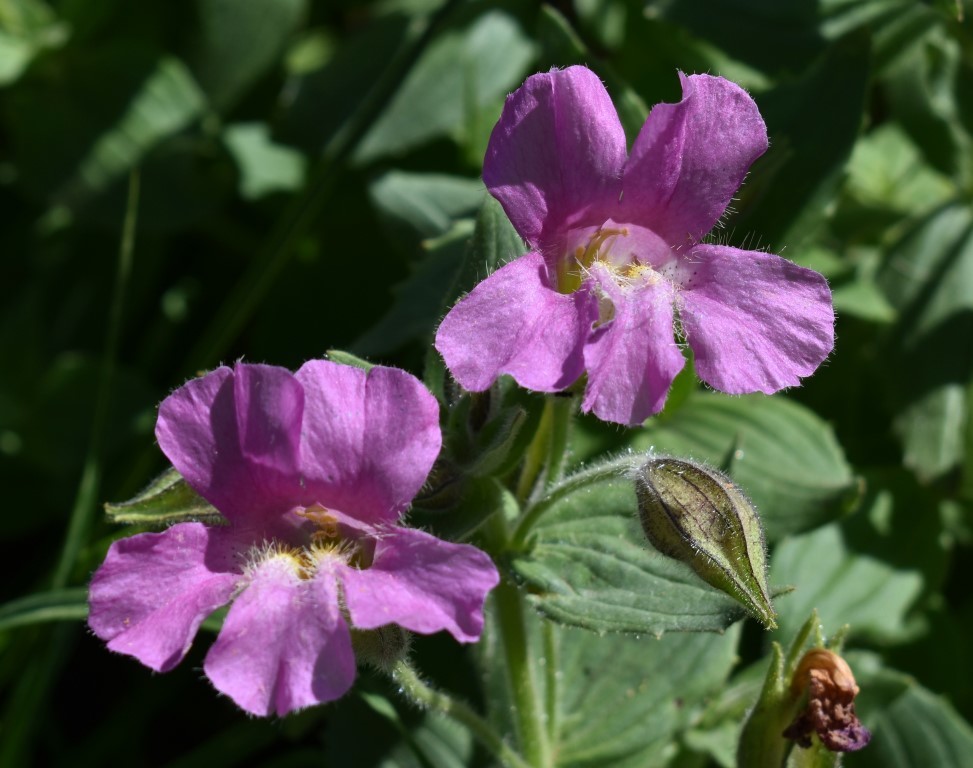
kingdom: Plantae
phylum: Tracheophyta
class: Magnoliopsida
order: Lamiales
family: Phrymaceae
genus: Erythranthe
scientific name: Erythranthe lewisii
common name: Lewis's monkey-flower
